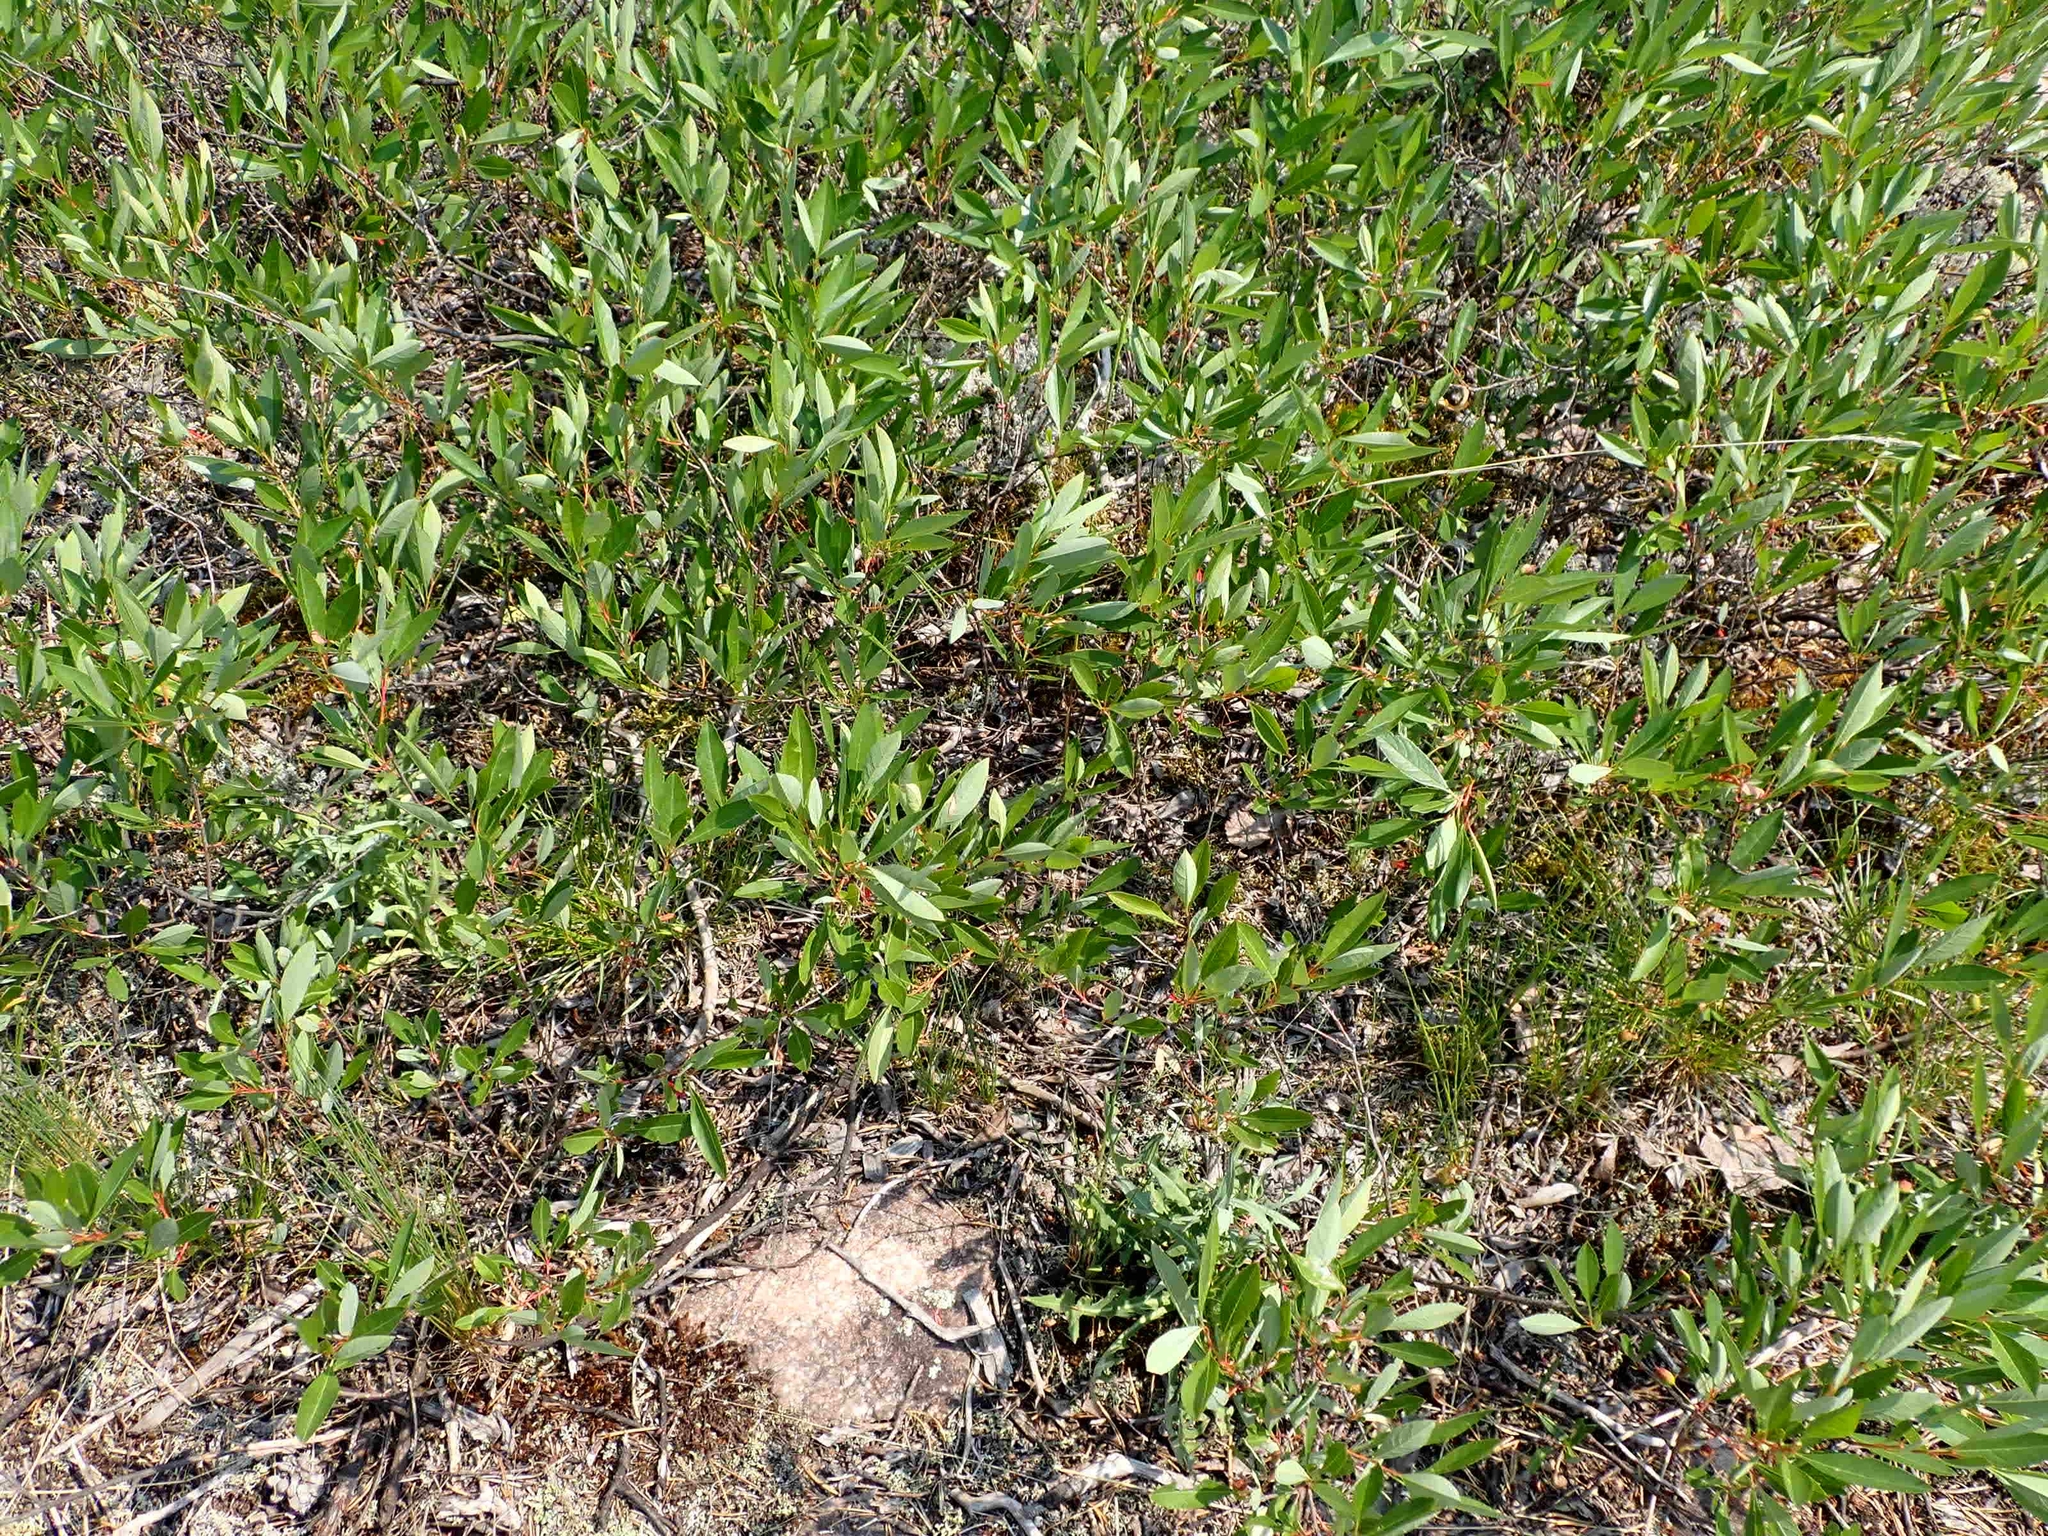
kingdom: Plantae
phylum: Tracheophyta
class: Magnoliopsida
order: Rosales
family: Rosaceae
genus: Prunus
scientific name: Prunus pumila
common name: Dwarf cherry
